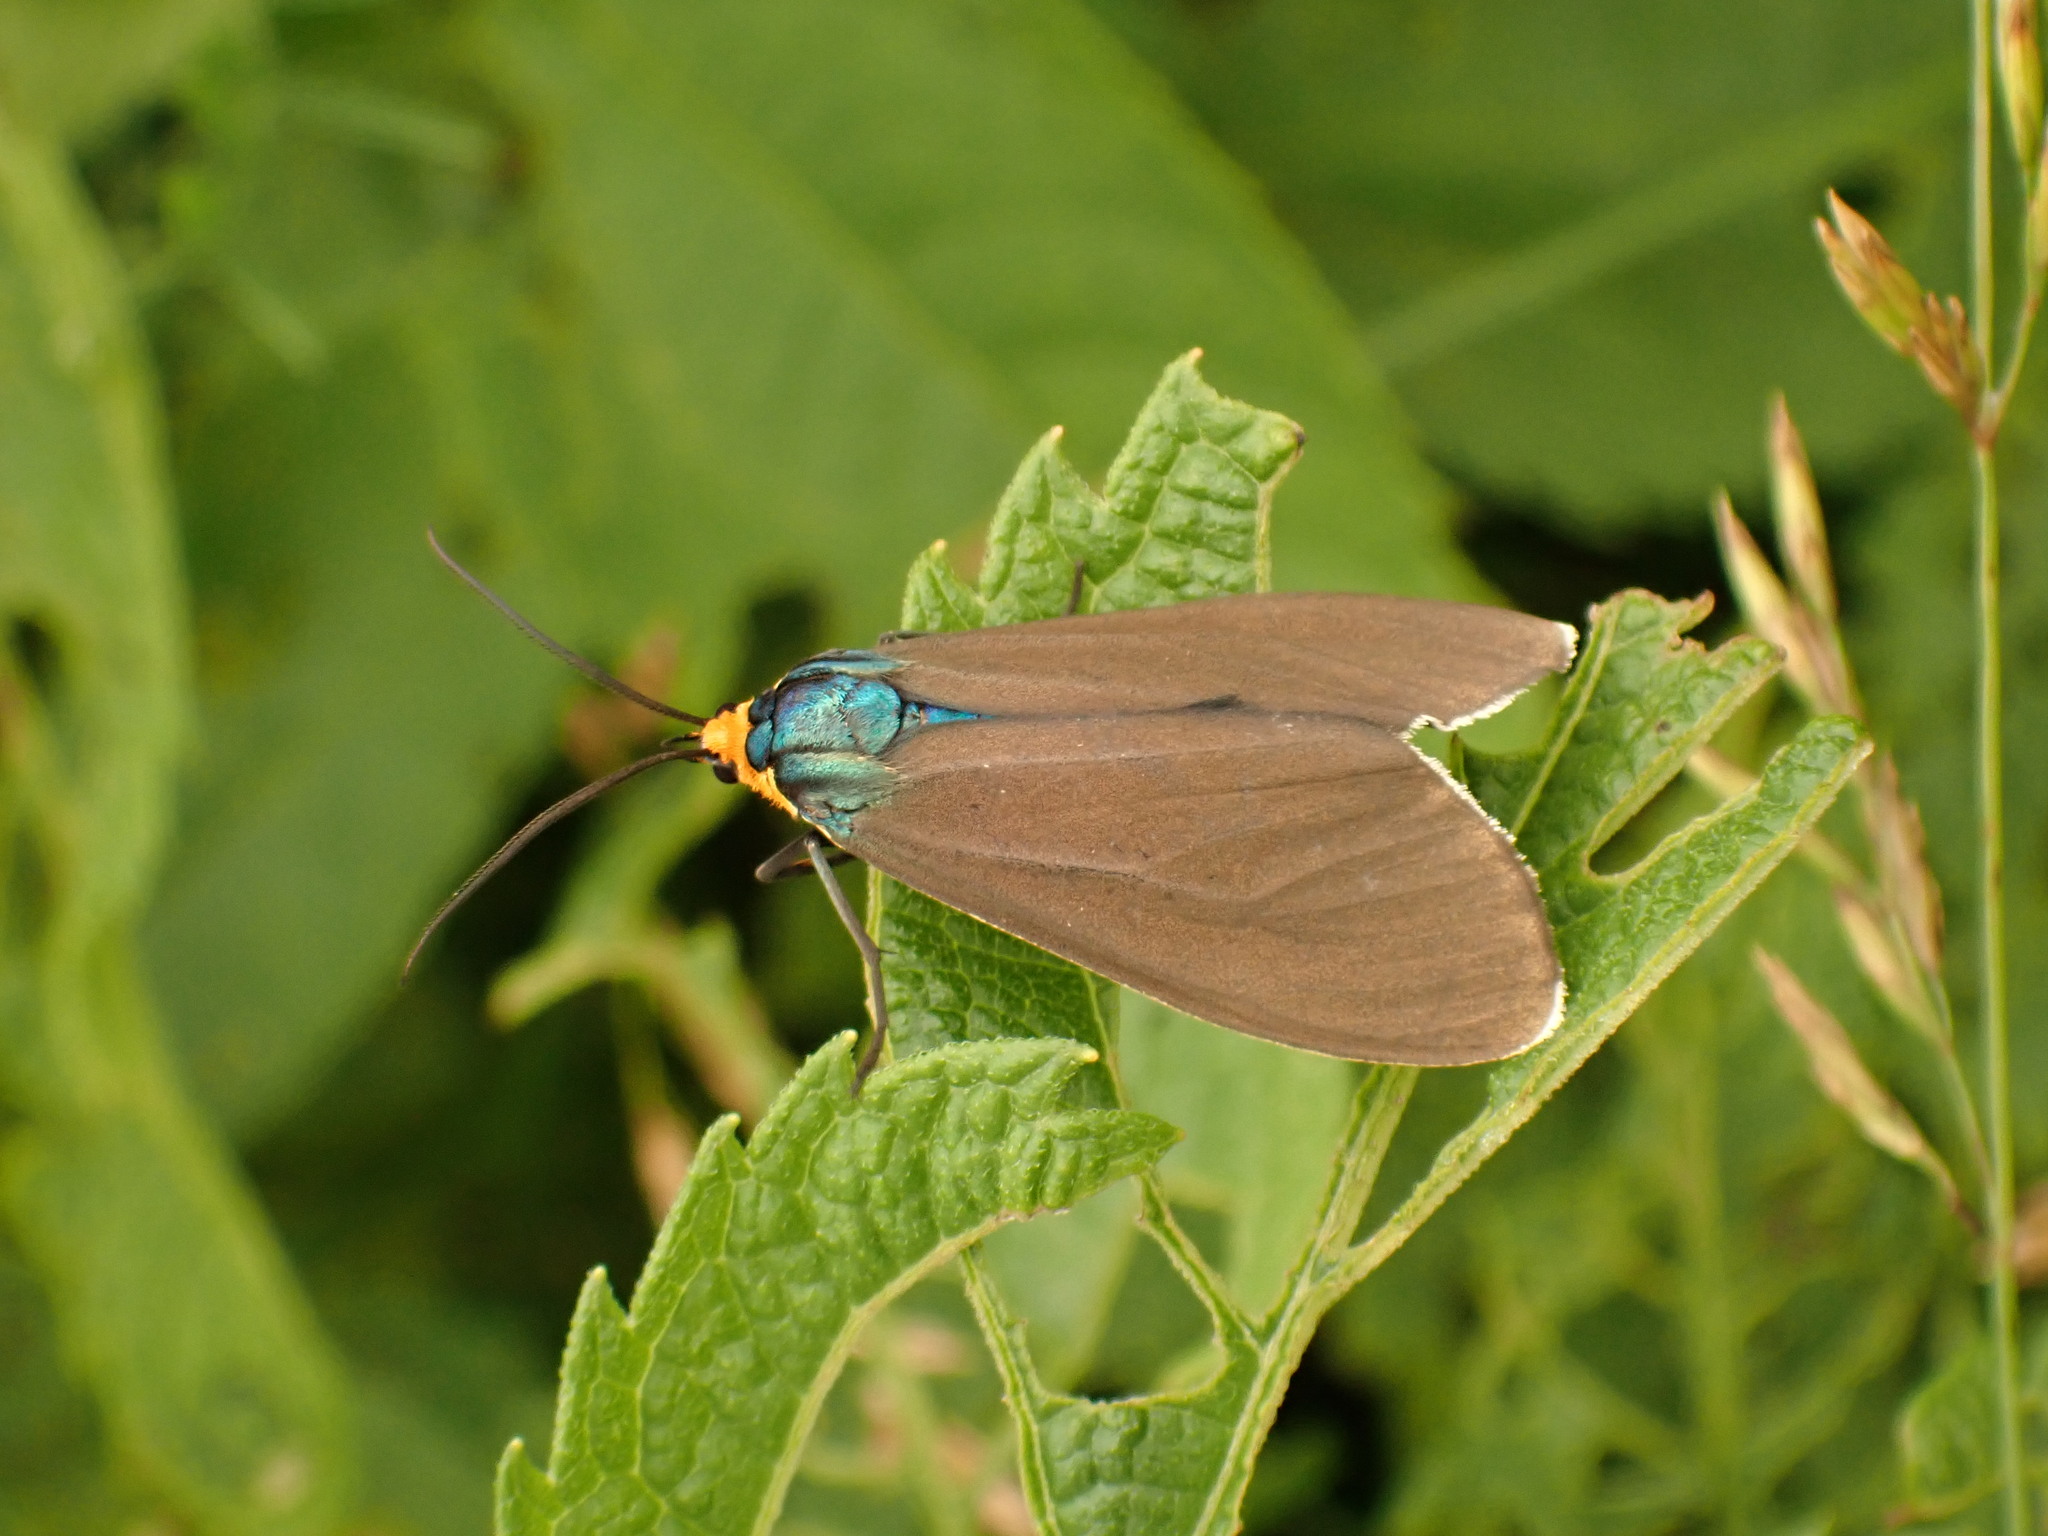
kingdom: Animalia
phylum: Arthropoda
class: Insecta
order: Lepidoptera
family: Erebidae
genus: Ctenucha
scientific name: Ctenucha virginica
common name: Virginia ctenucha moth
